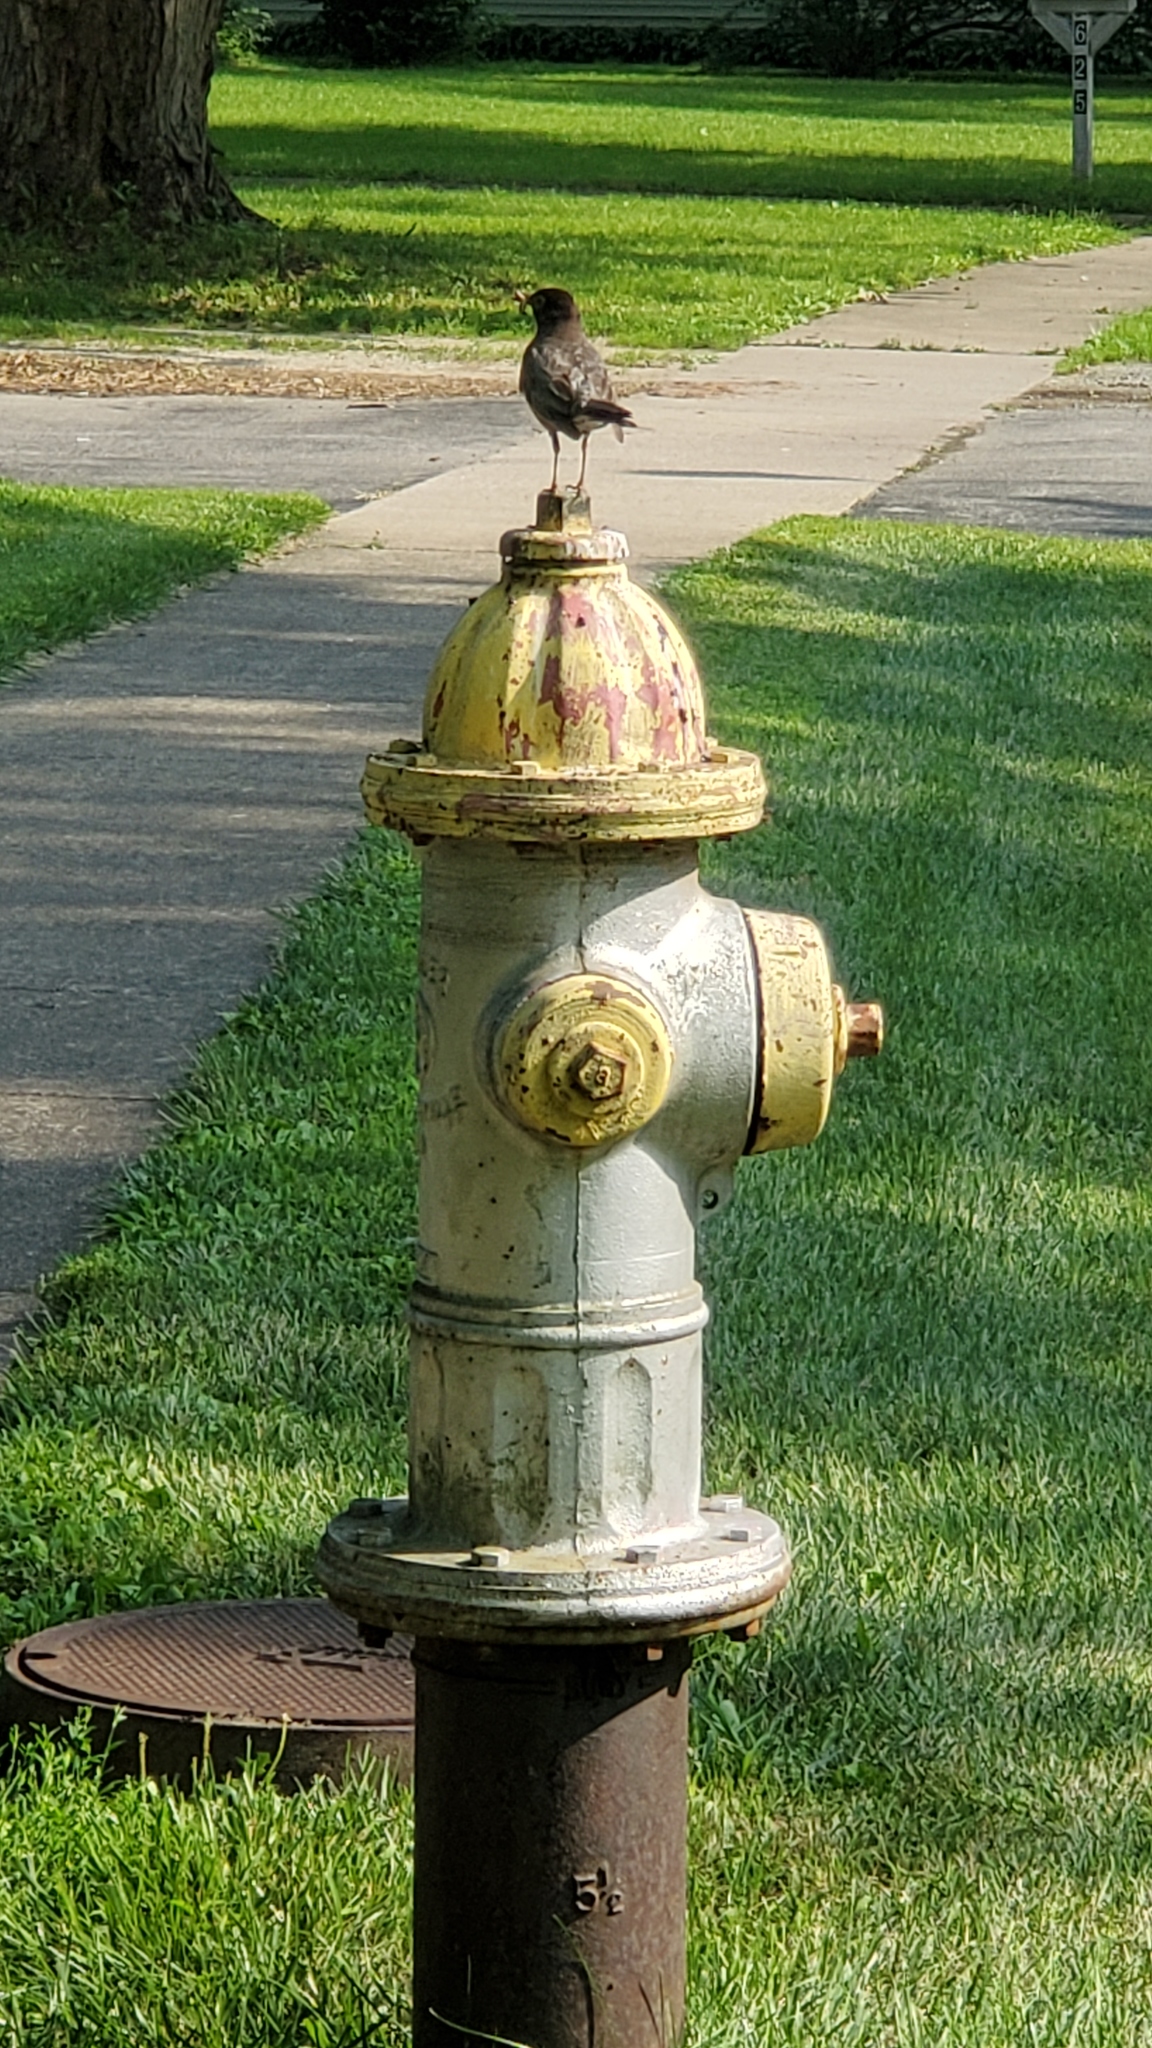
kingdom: Animalia
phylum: Chordata
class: Aves
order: Passeriformes
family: Turdidae
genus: Turdus
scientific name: Turdus migratorius
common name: American robin
